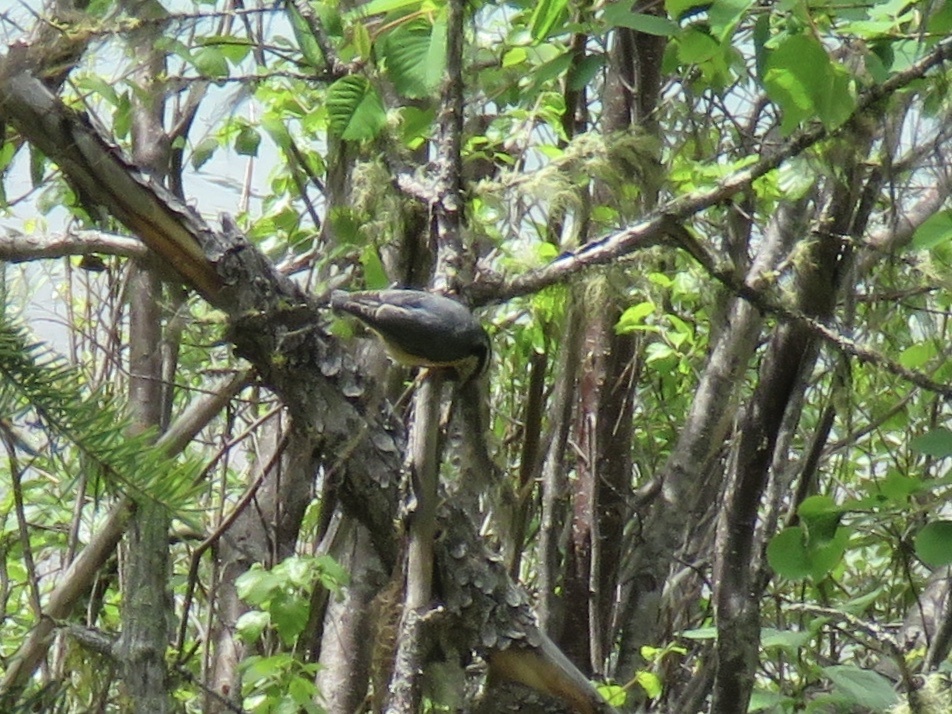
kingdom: Animalia
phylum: Chordata
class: Aves
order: Passeriformes
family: Sittidae
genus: Sitta
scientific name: Sitta canadensis
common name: Red-breasted nuthatch
